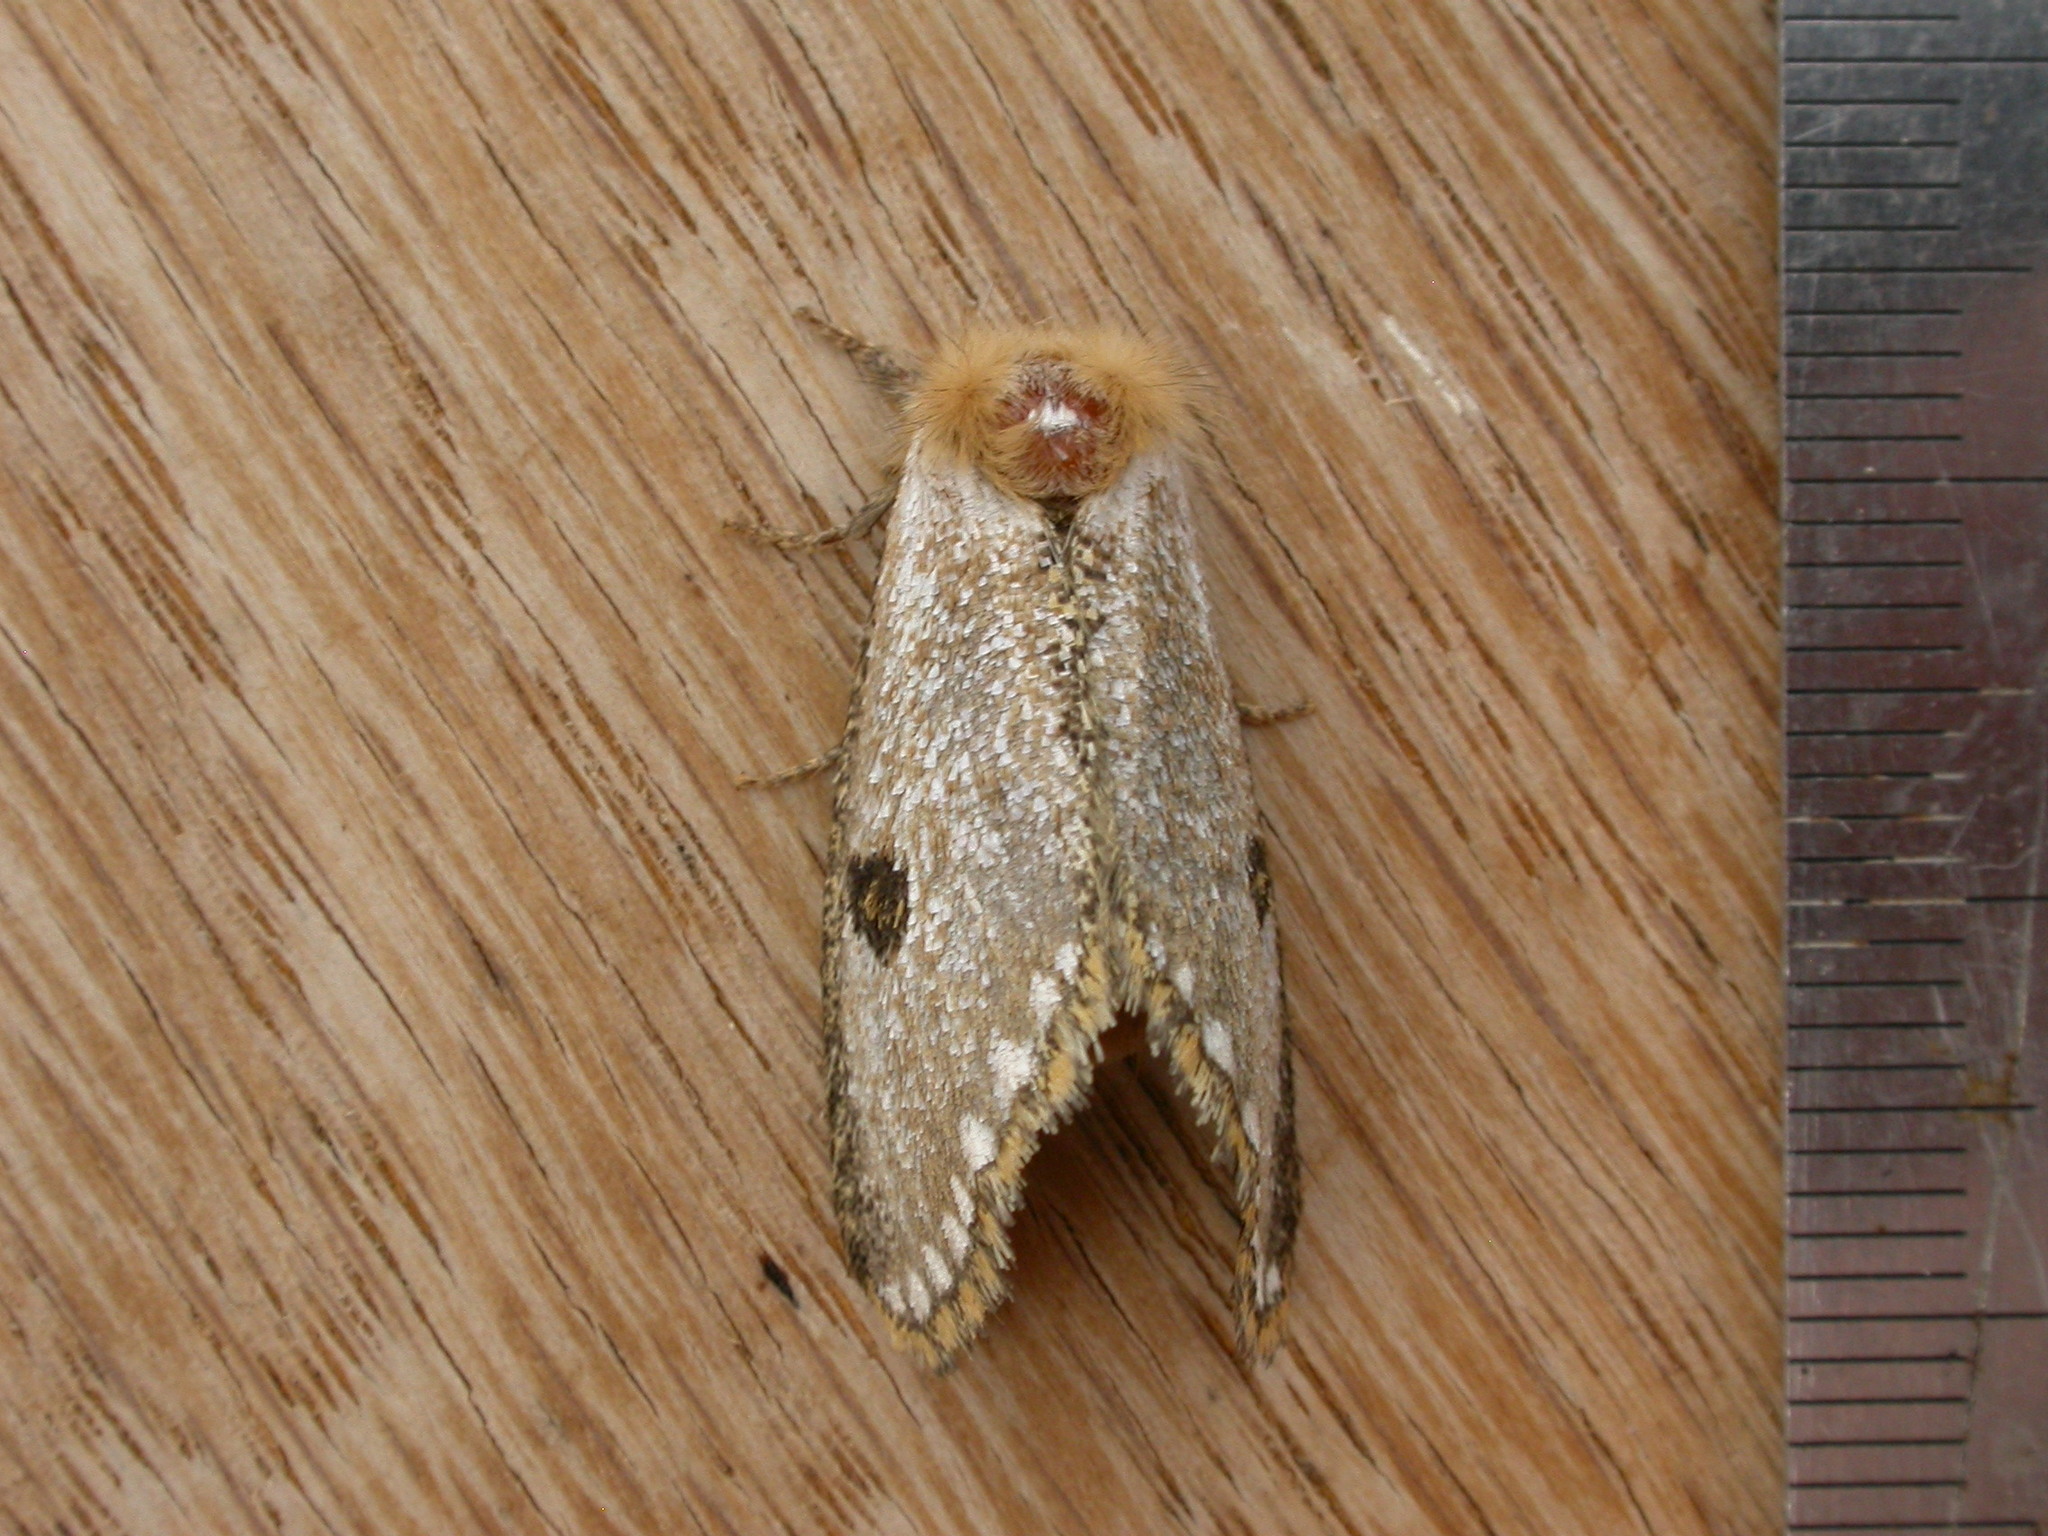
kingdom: Animalia
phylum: Arthropoda
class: Insecta
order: Lepidoptera
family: Notodontidae
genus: Epicoma
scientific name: Epicoma melanosticta
